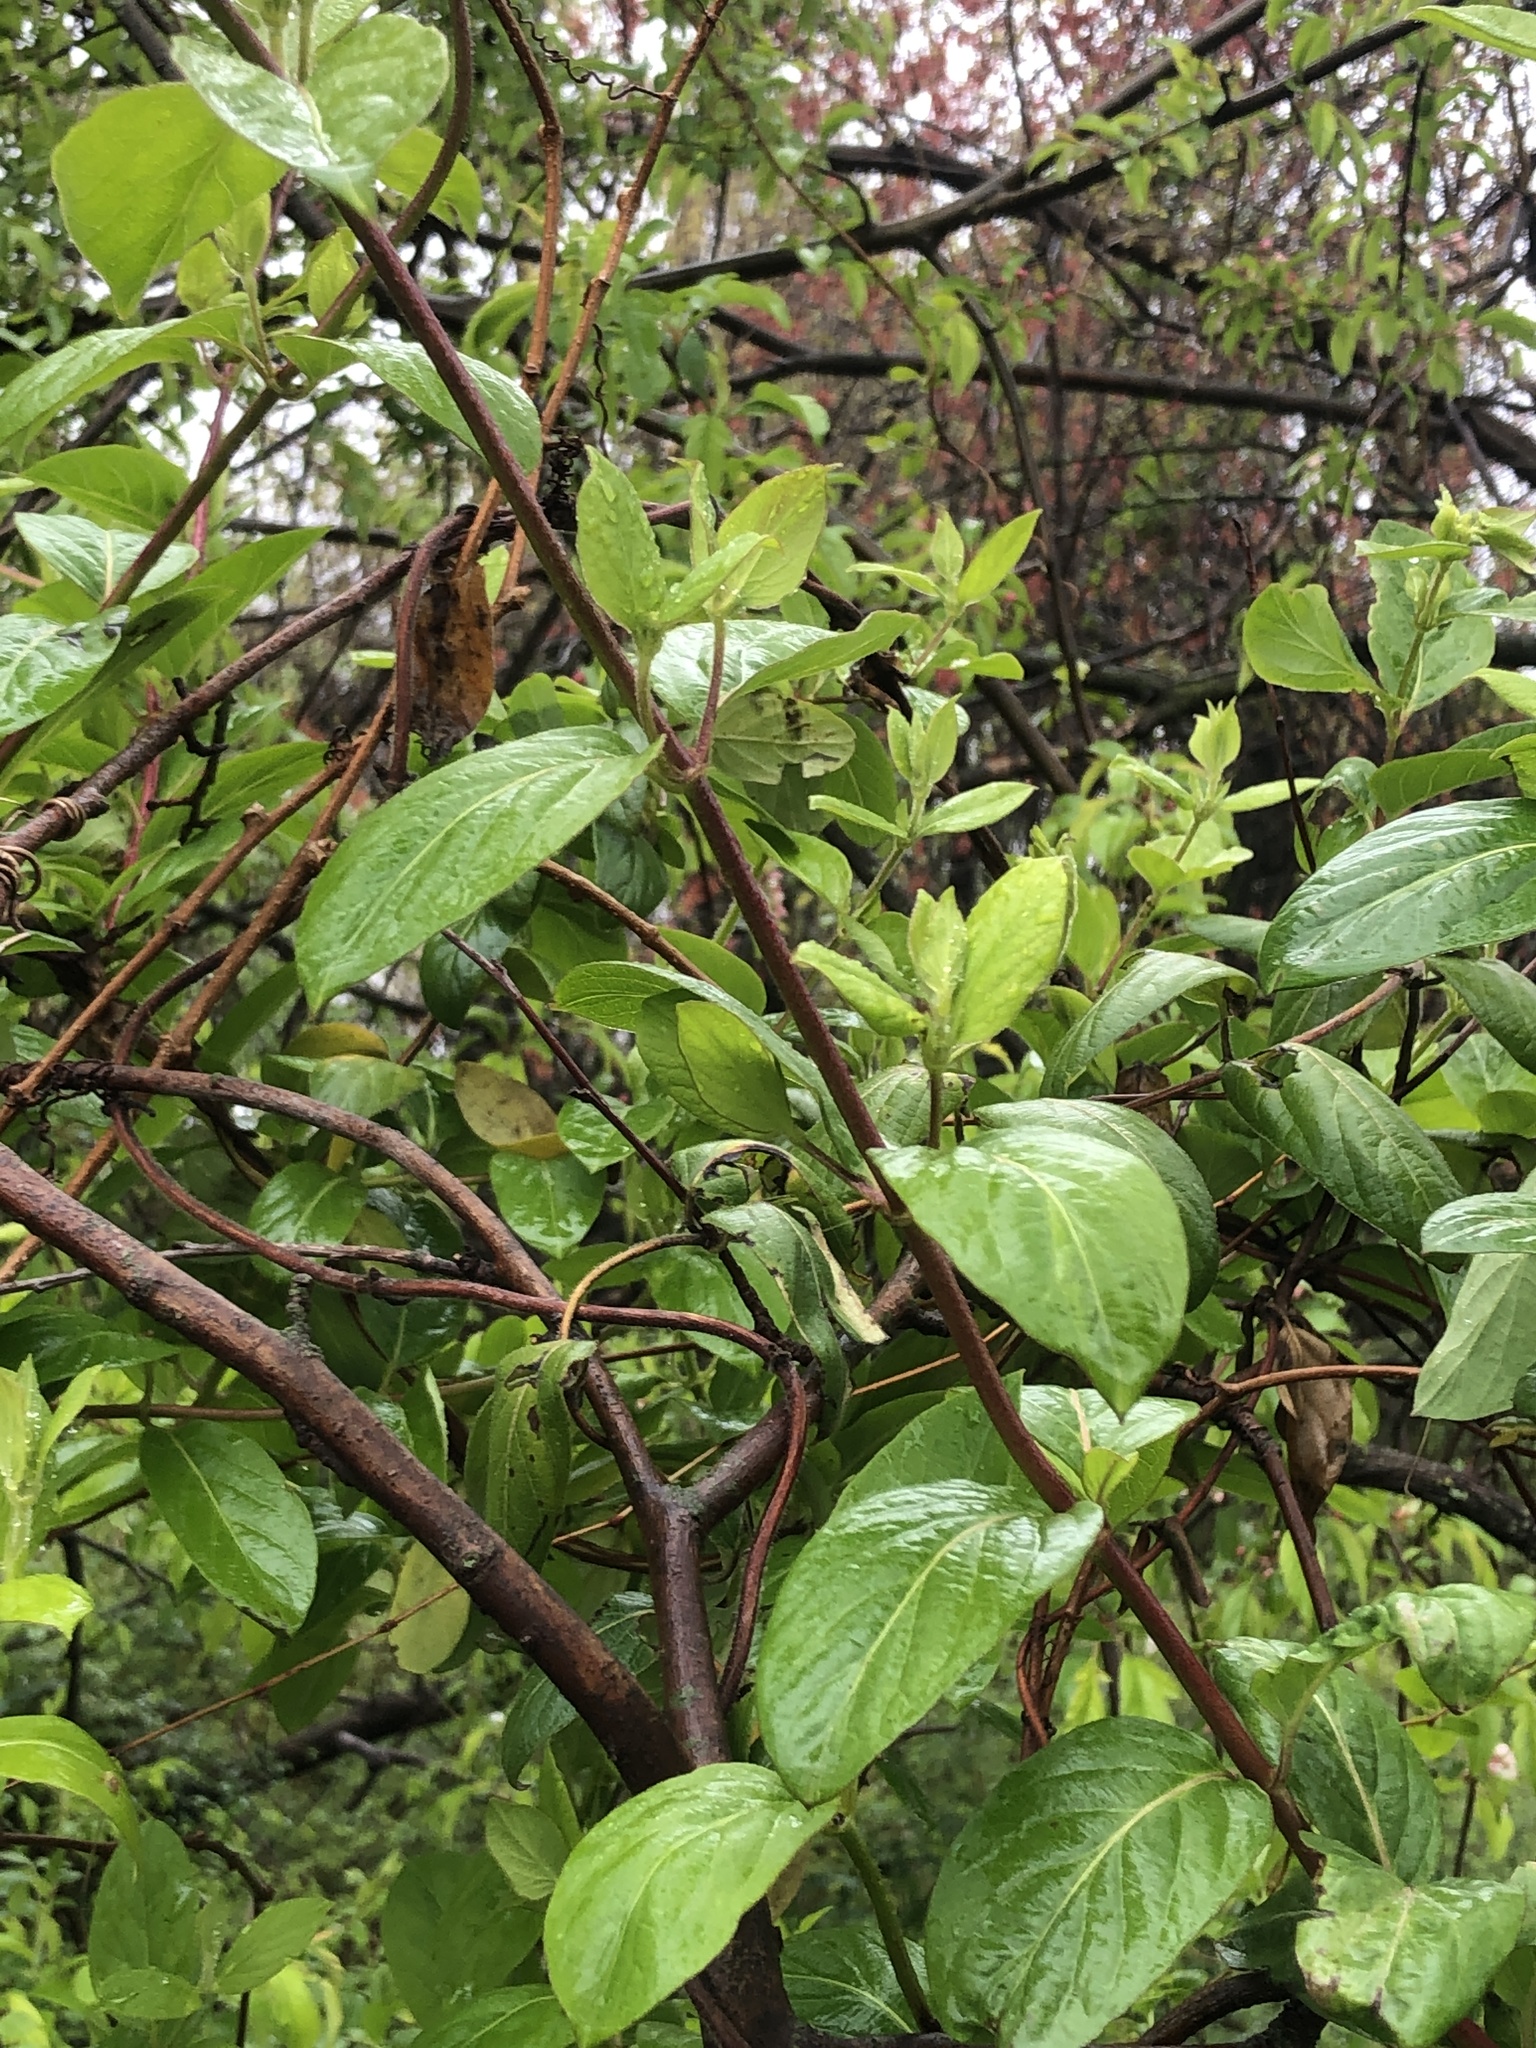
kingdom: Plantae
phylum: Tracheophyta
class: Magnoliopsida
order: Dipsacales
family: Caprifoliaceae
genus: Lonicera
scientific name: Lonicera japonica
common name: Japanese honeysuckle
